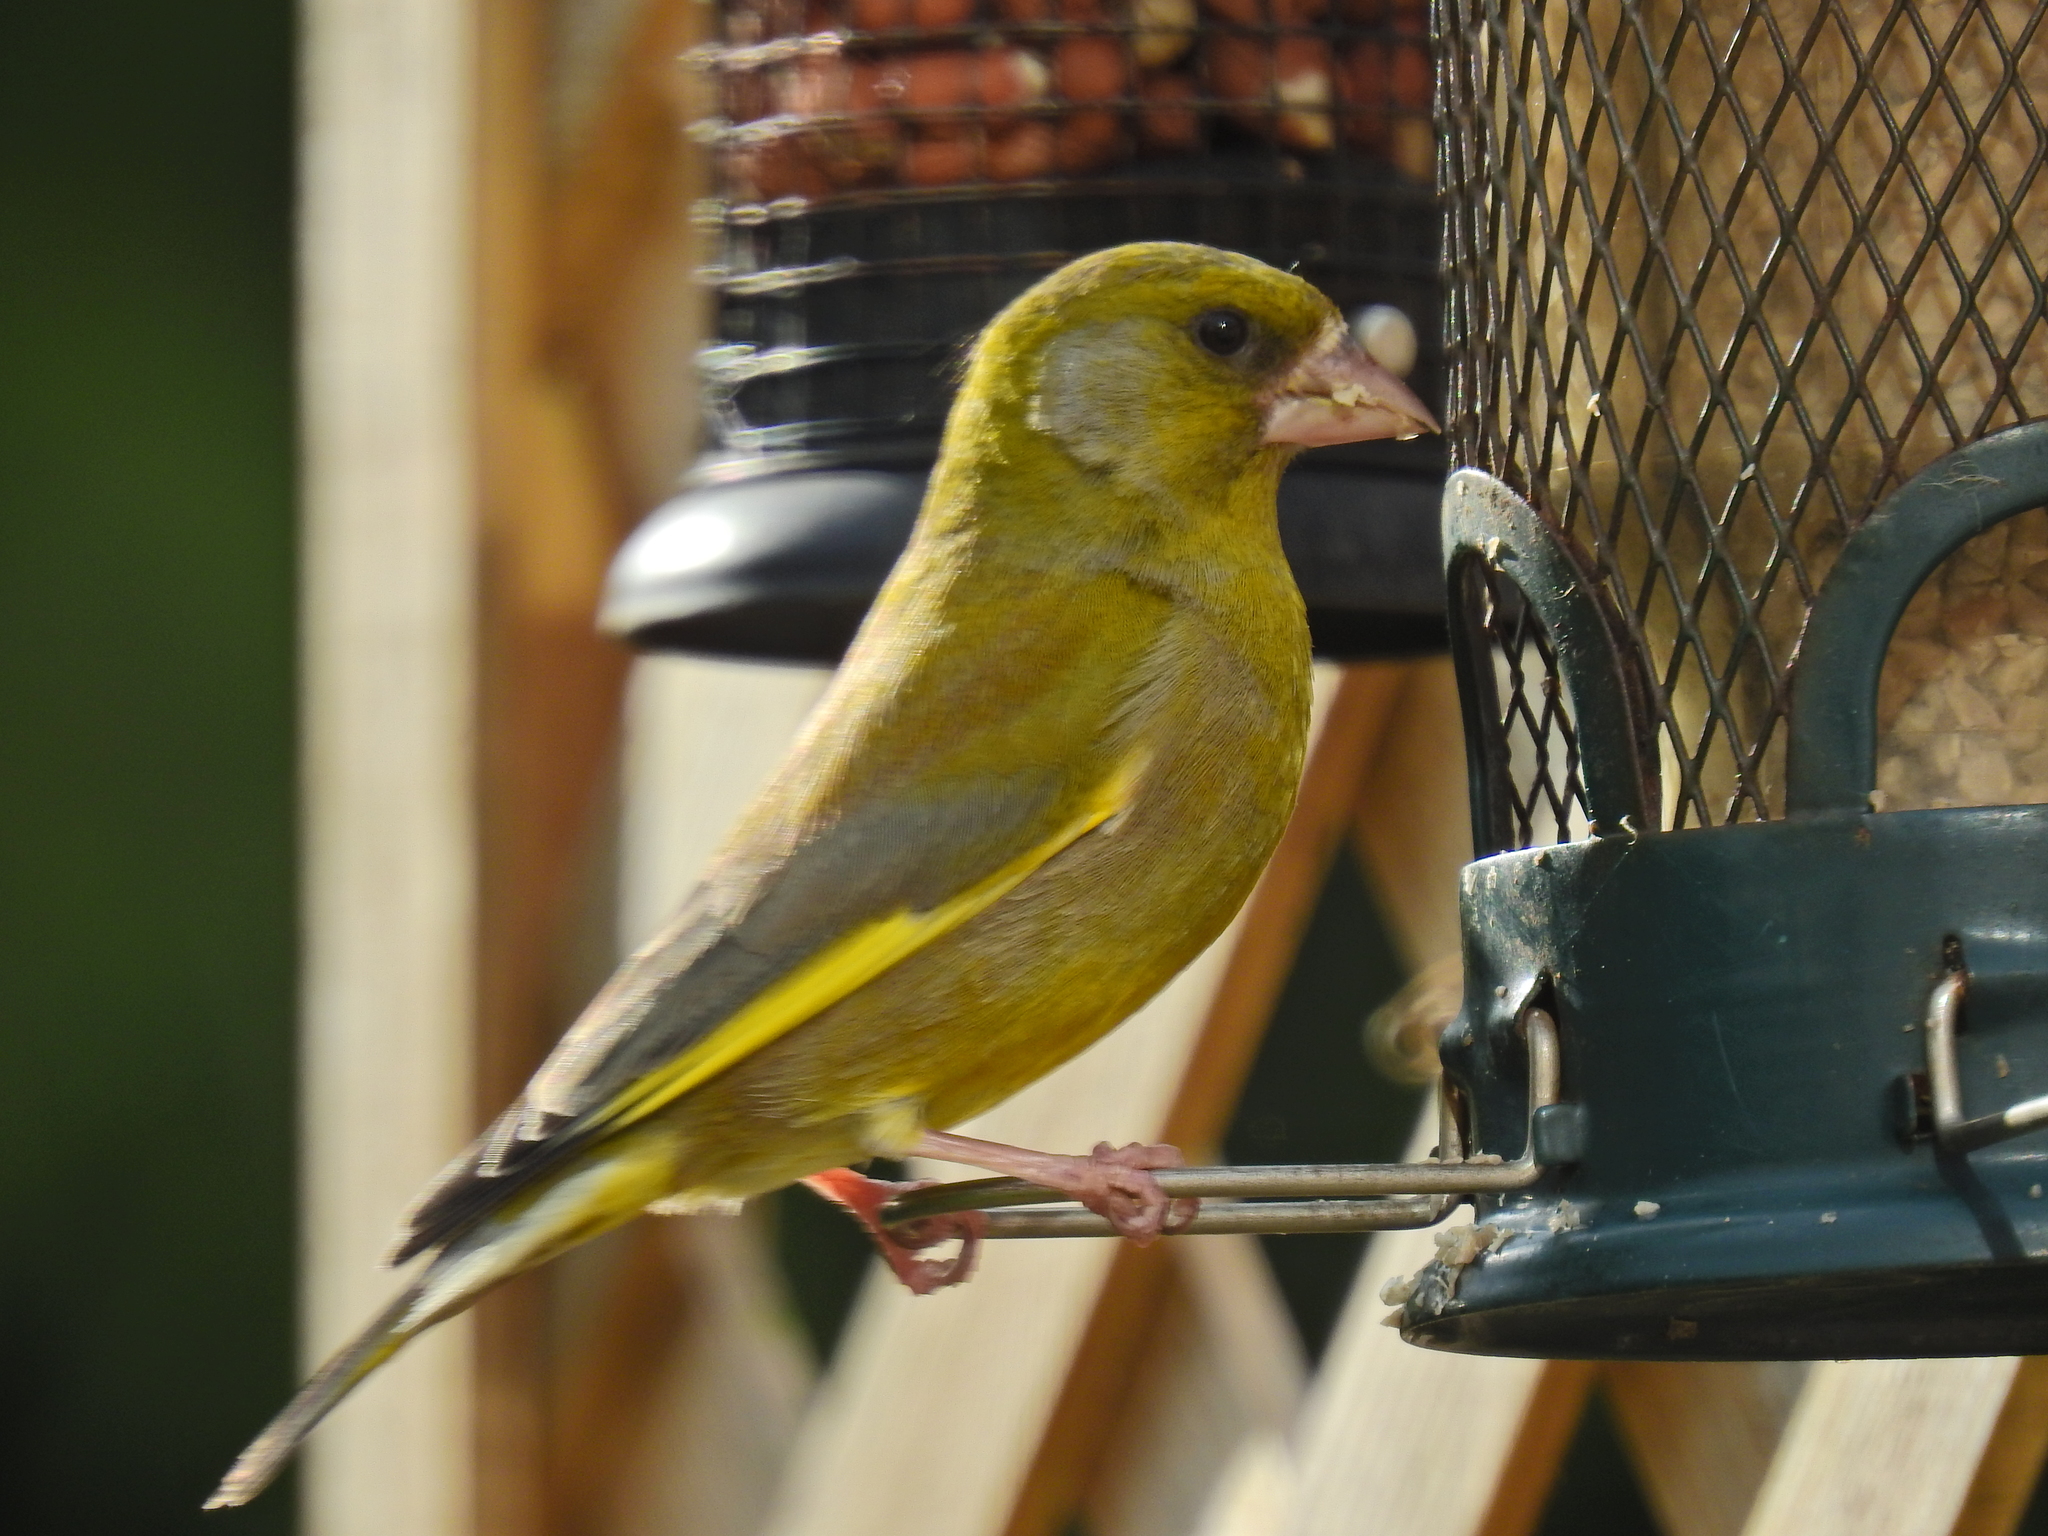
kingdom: Plantae
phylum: Tracheophyta
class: Liliopsida
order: Poales
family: Poaceae
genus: Chloris
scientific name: Chloris chloris
